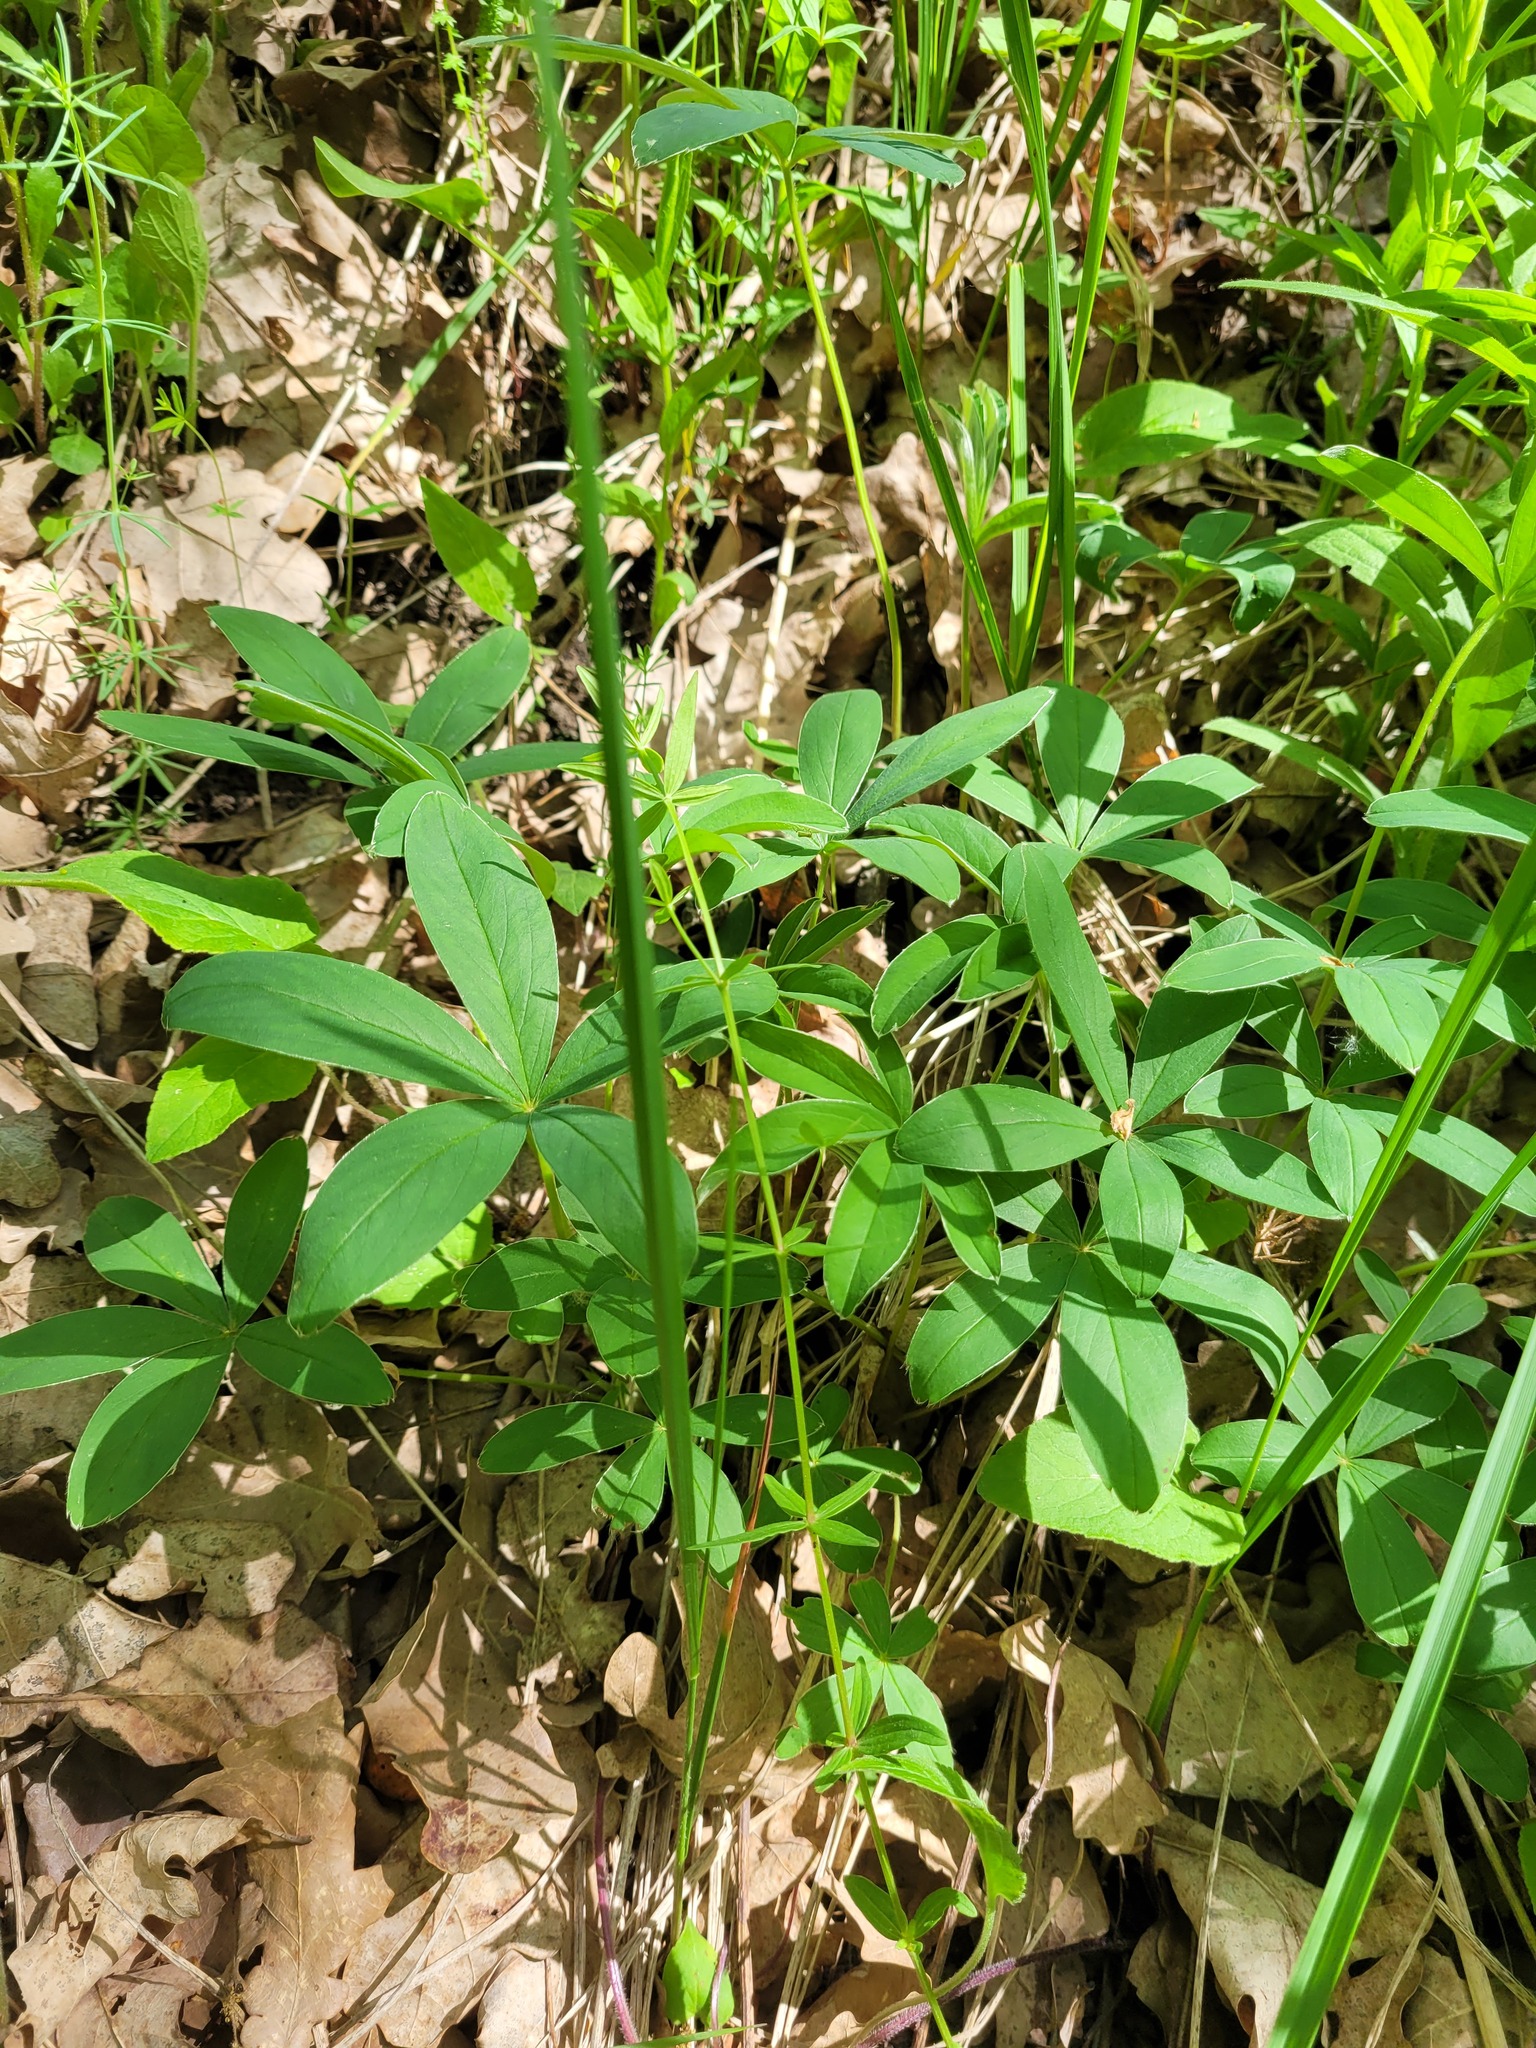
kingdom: Plantae
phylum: Tracheophyta
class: Magnoliopsida
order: Rosales
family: Rosaceae
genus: Potentilla
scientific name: Potentilla alba
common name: White cinquefoil
